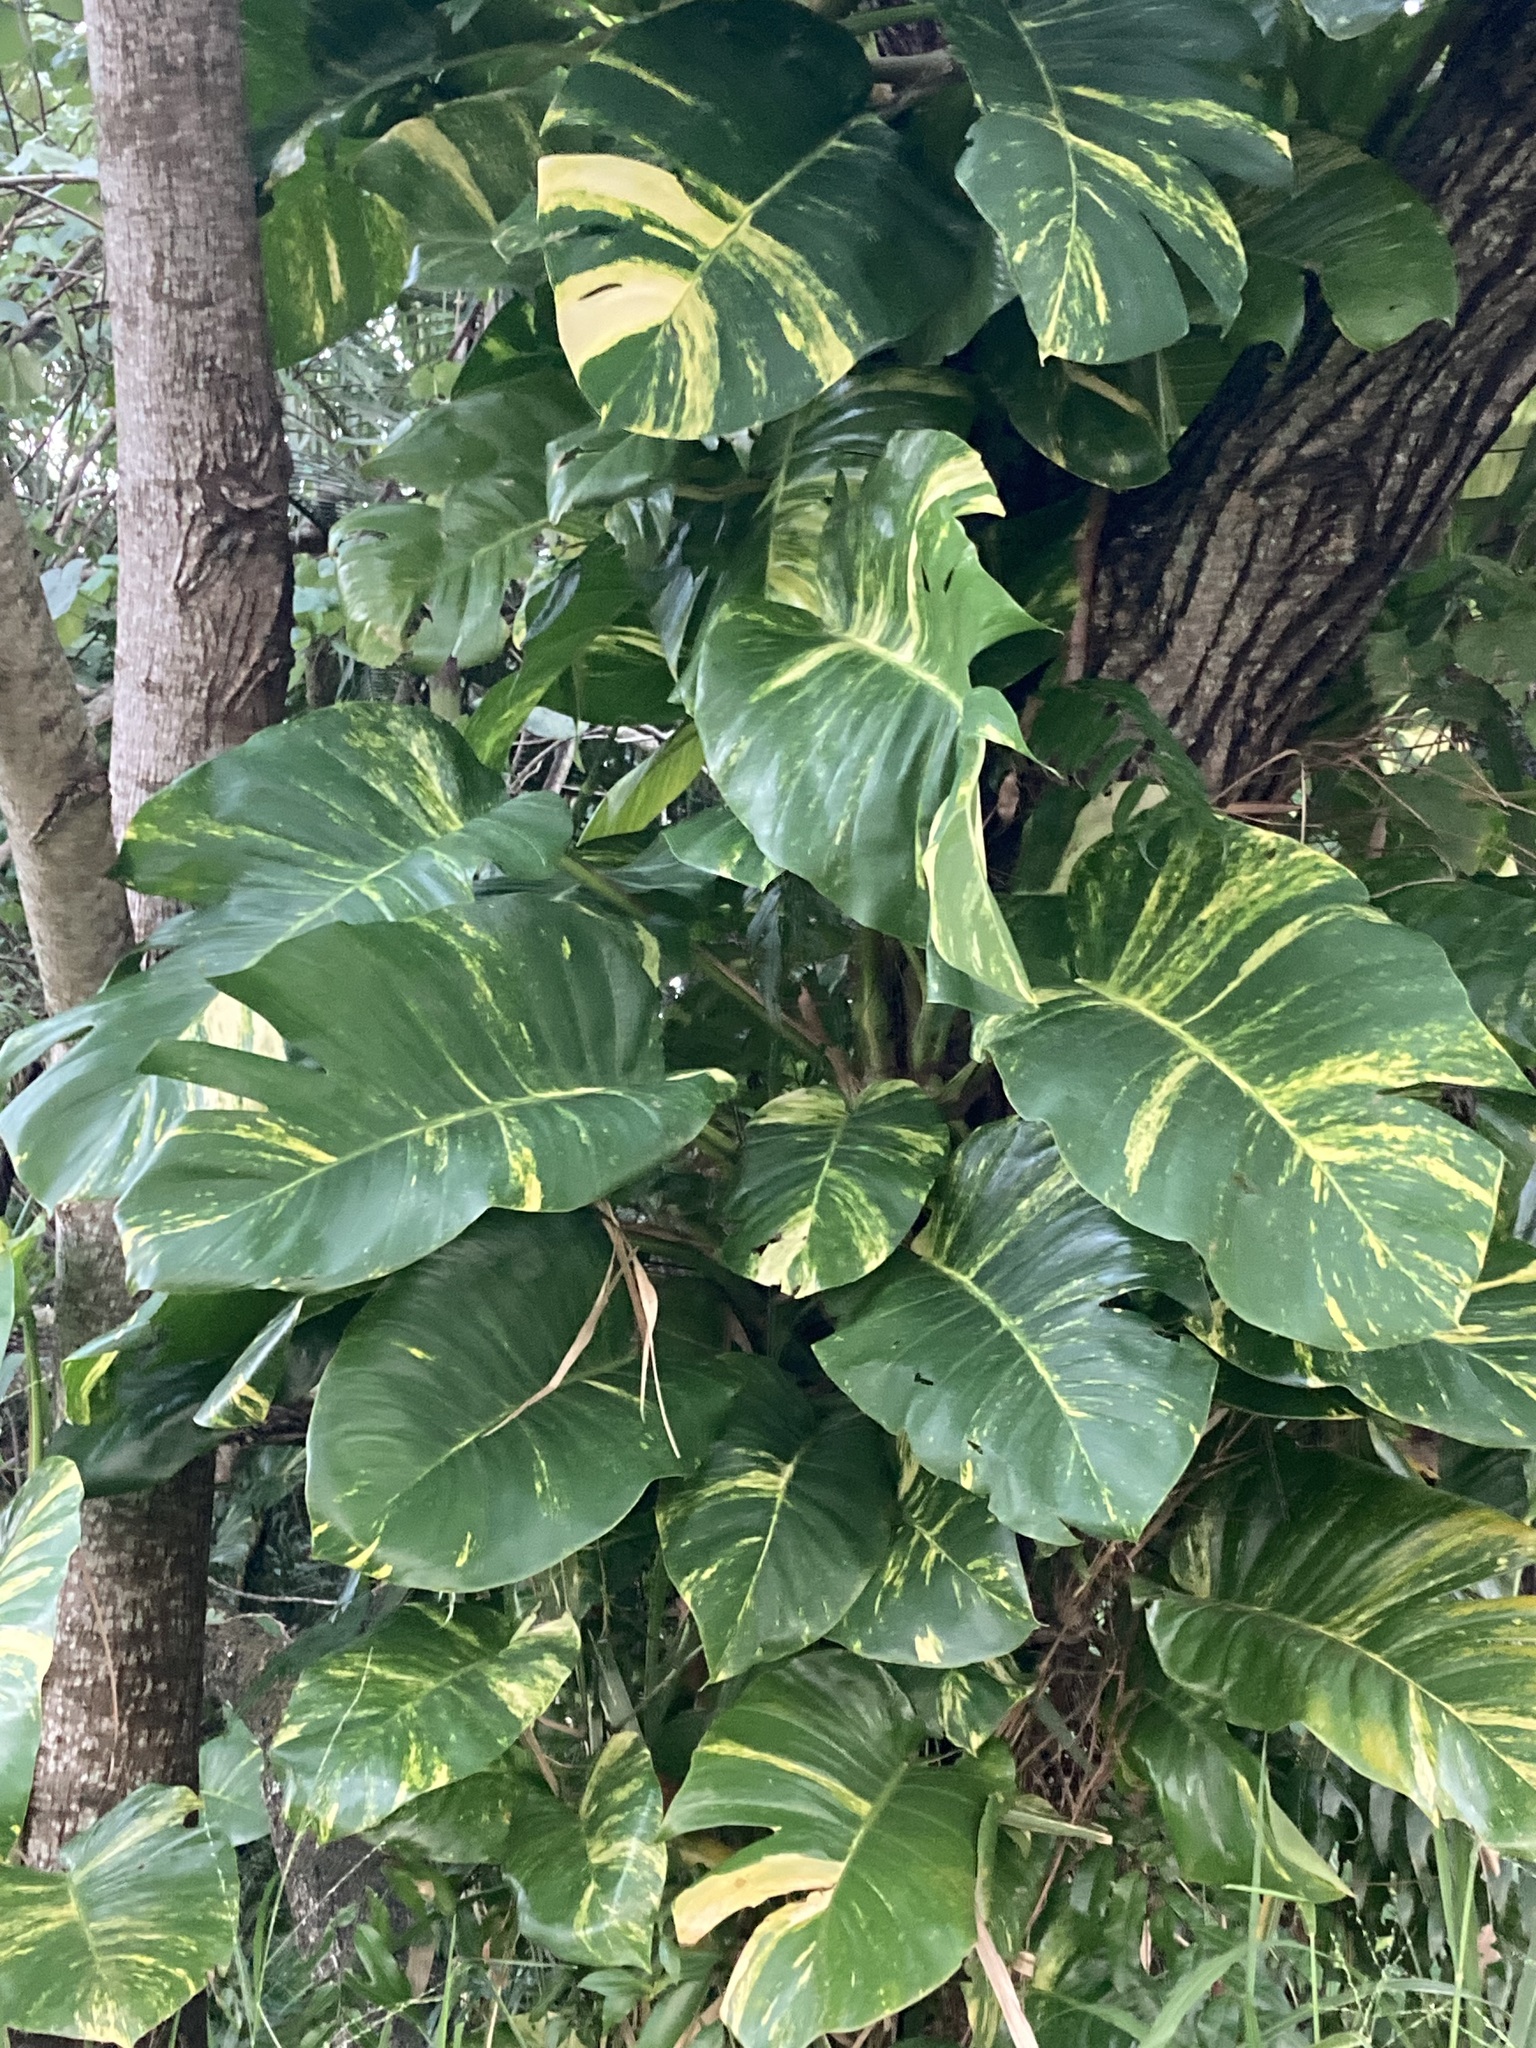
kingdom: Plantae
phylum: Tracheophyta
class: Liliopsida
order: Alismatales
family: Araceae
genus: Epipremnum
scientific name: Epipremnum aureum
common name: Golden hunter's-robe
